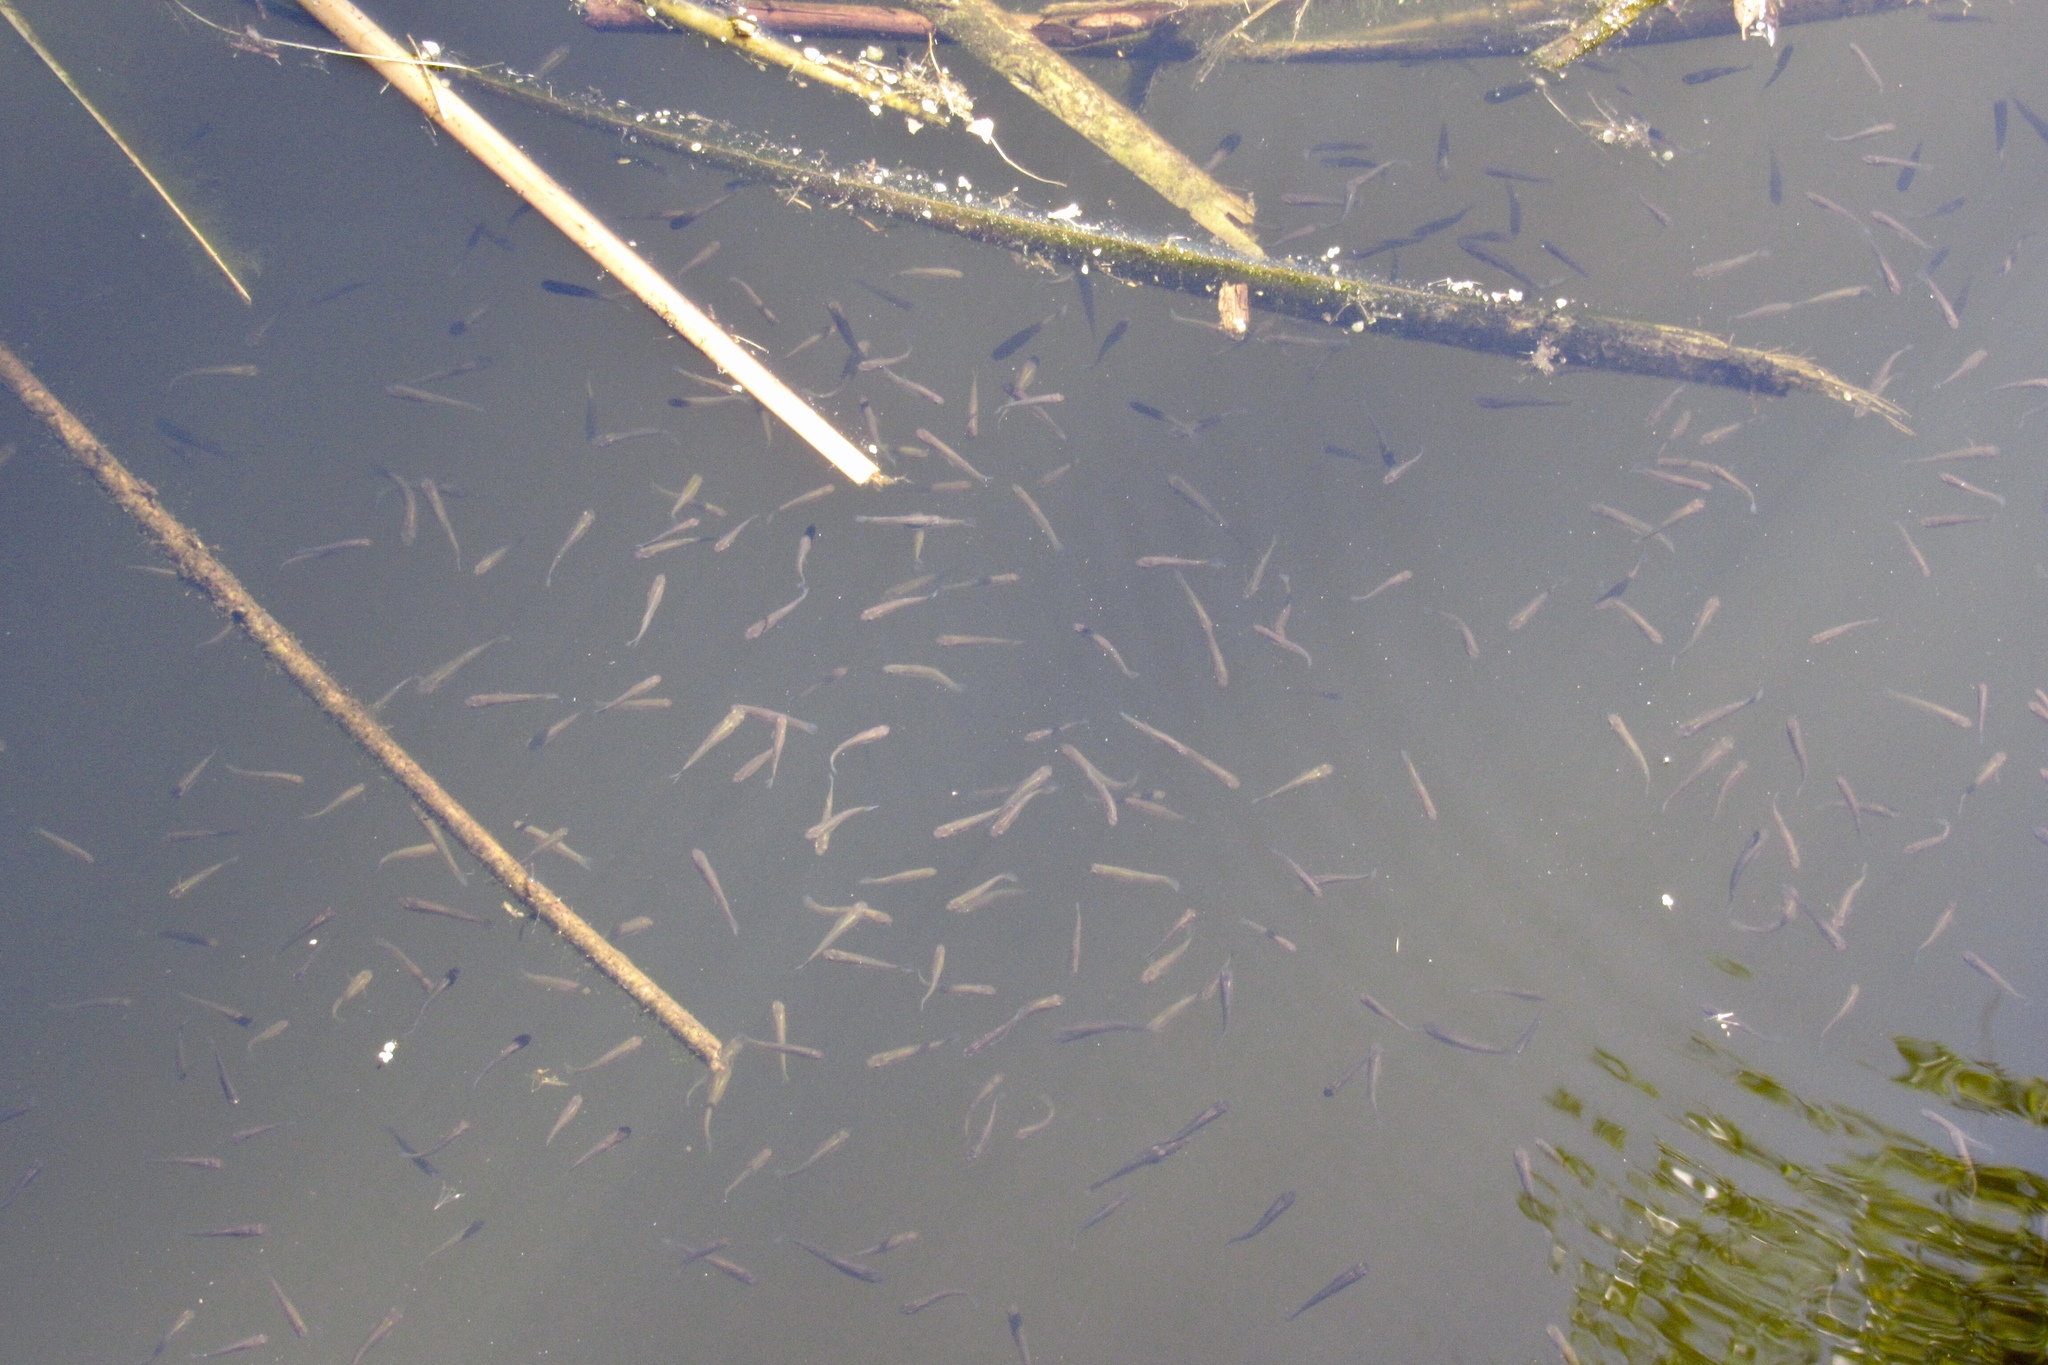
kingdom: Animalia
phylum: Chordata
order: Cyprinodontiformes
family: Poeciliidae
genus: Gambusia
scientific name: Gambusia affinis
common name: Mosquitofish
